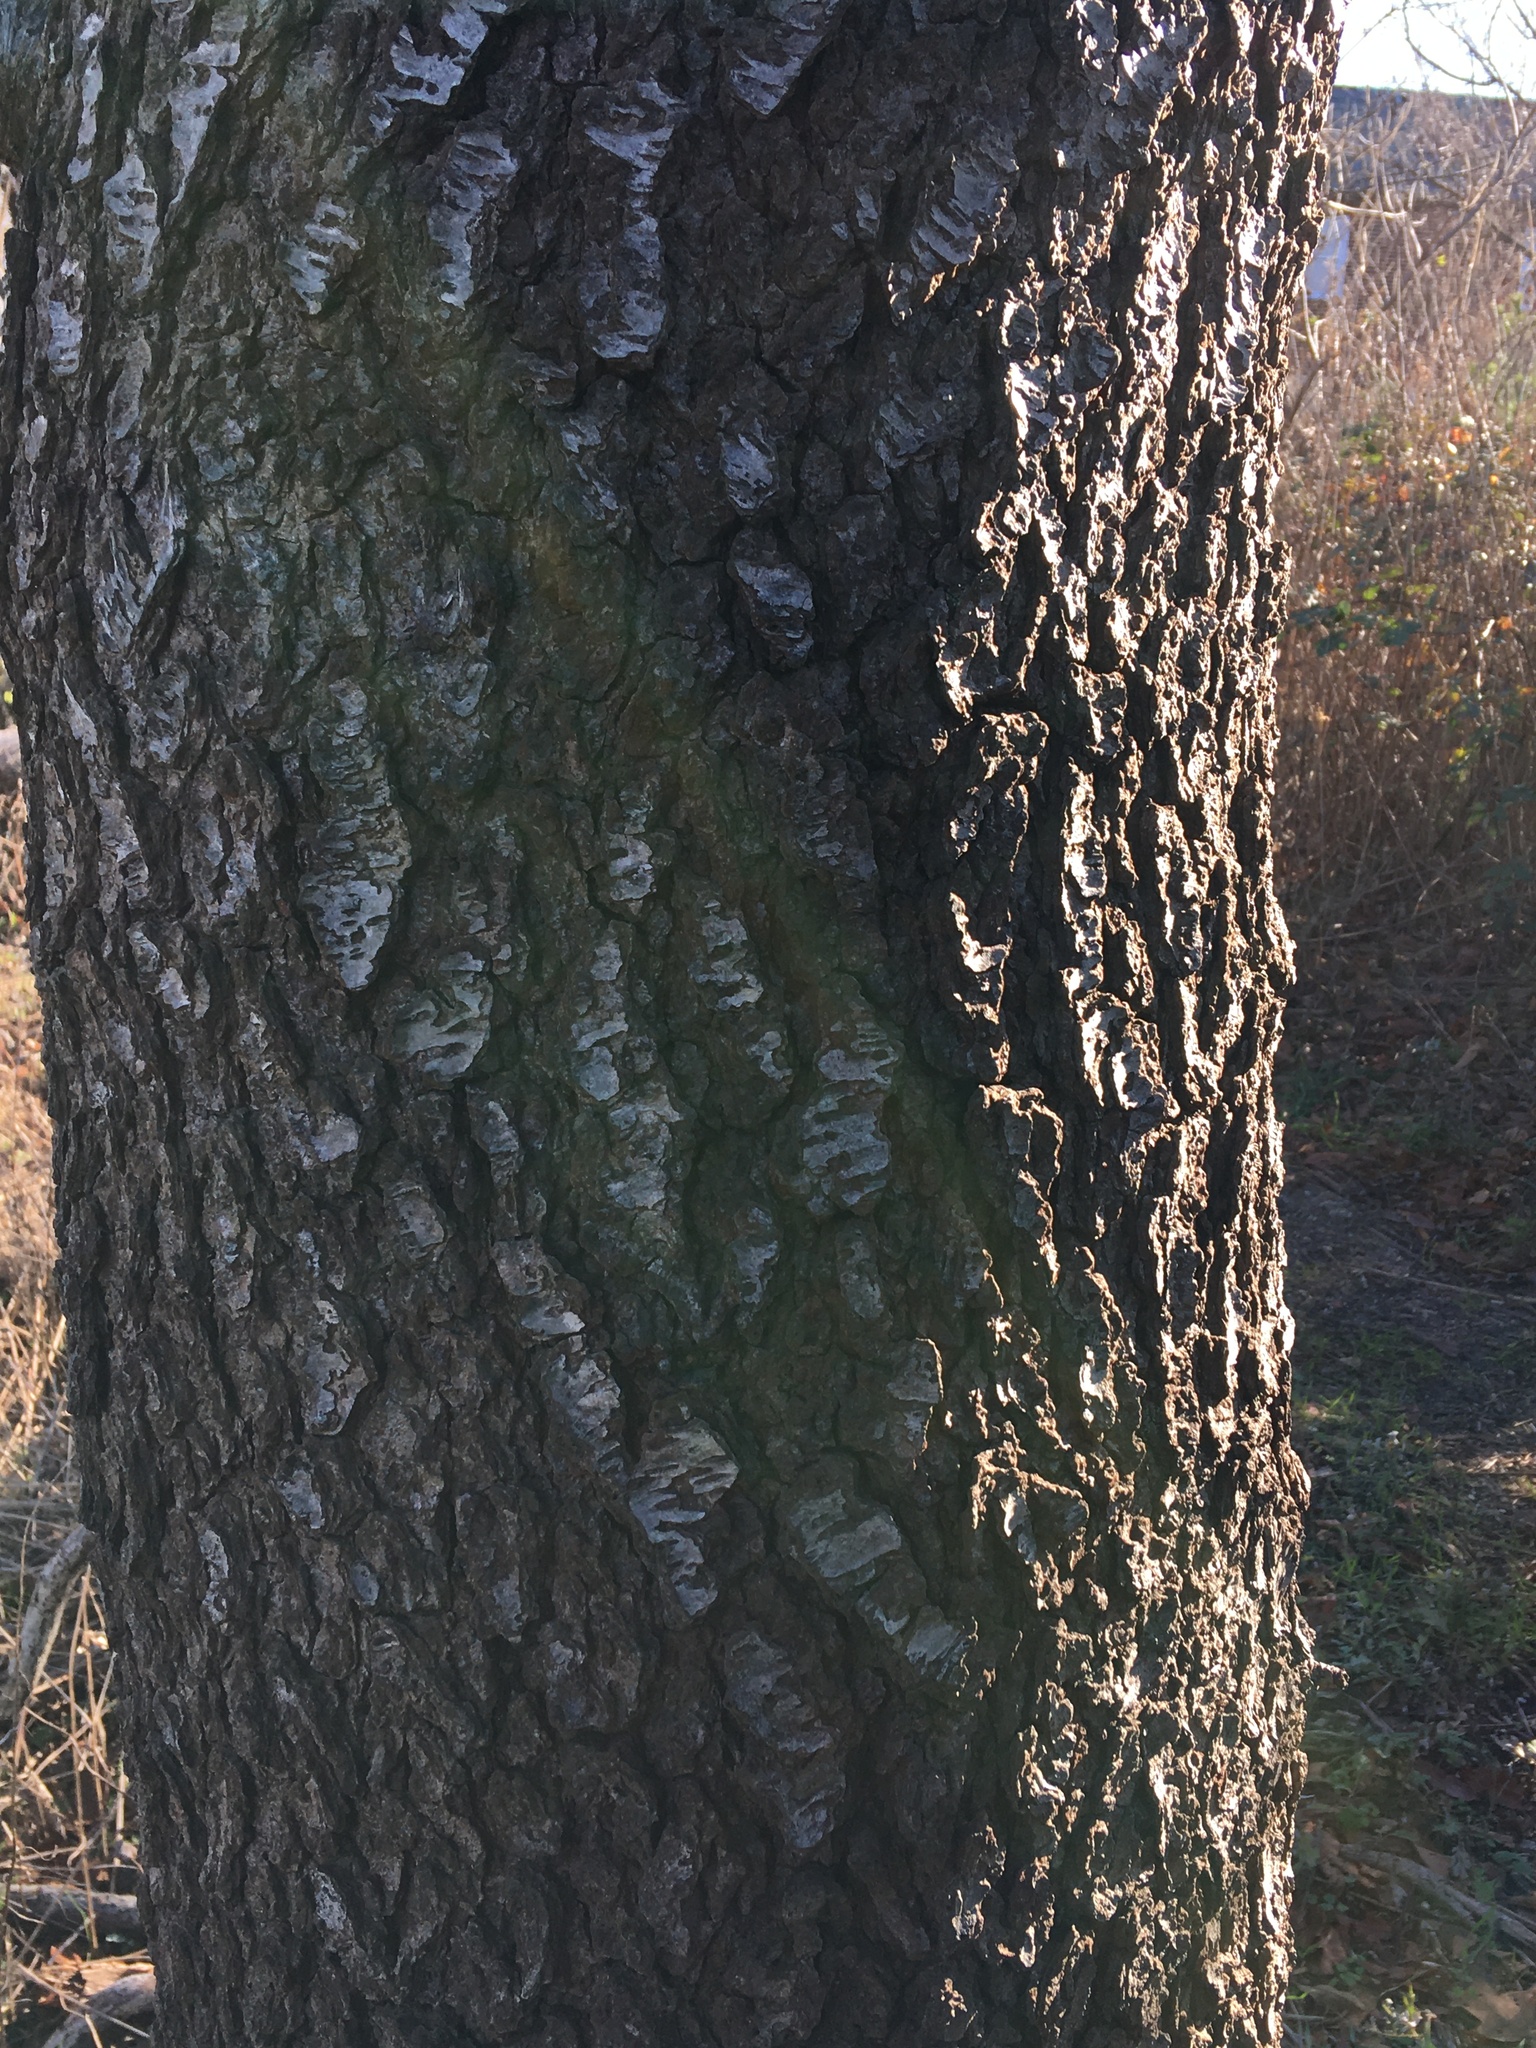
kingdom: Plantae
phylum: Tracheophyta
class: Magnoliopsida
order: Rosales
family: Rosaceae
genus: Prunus
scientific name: Prunus serotina
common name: Black cherry
